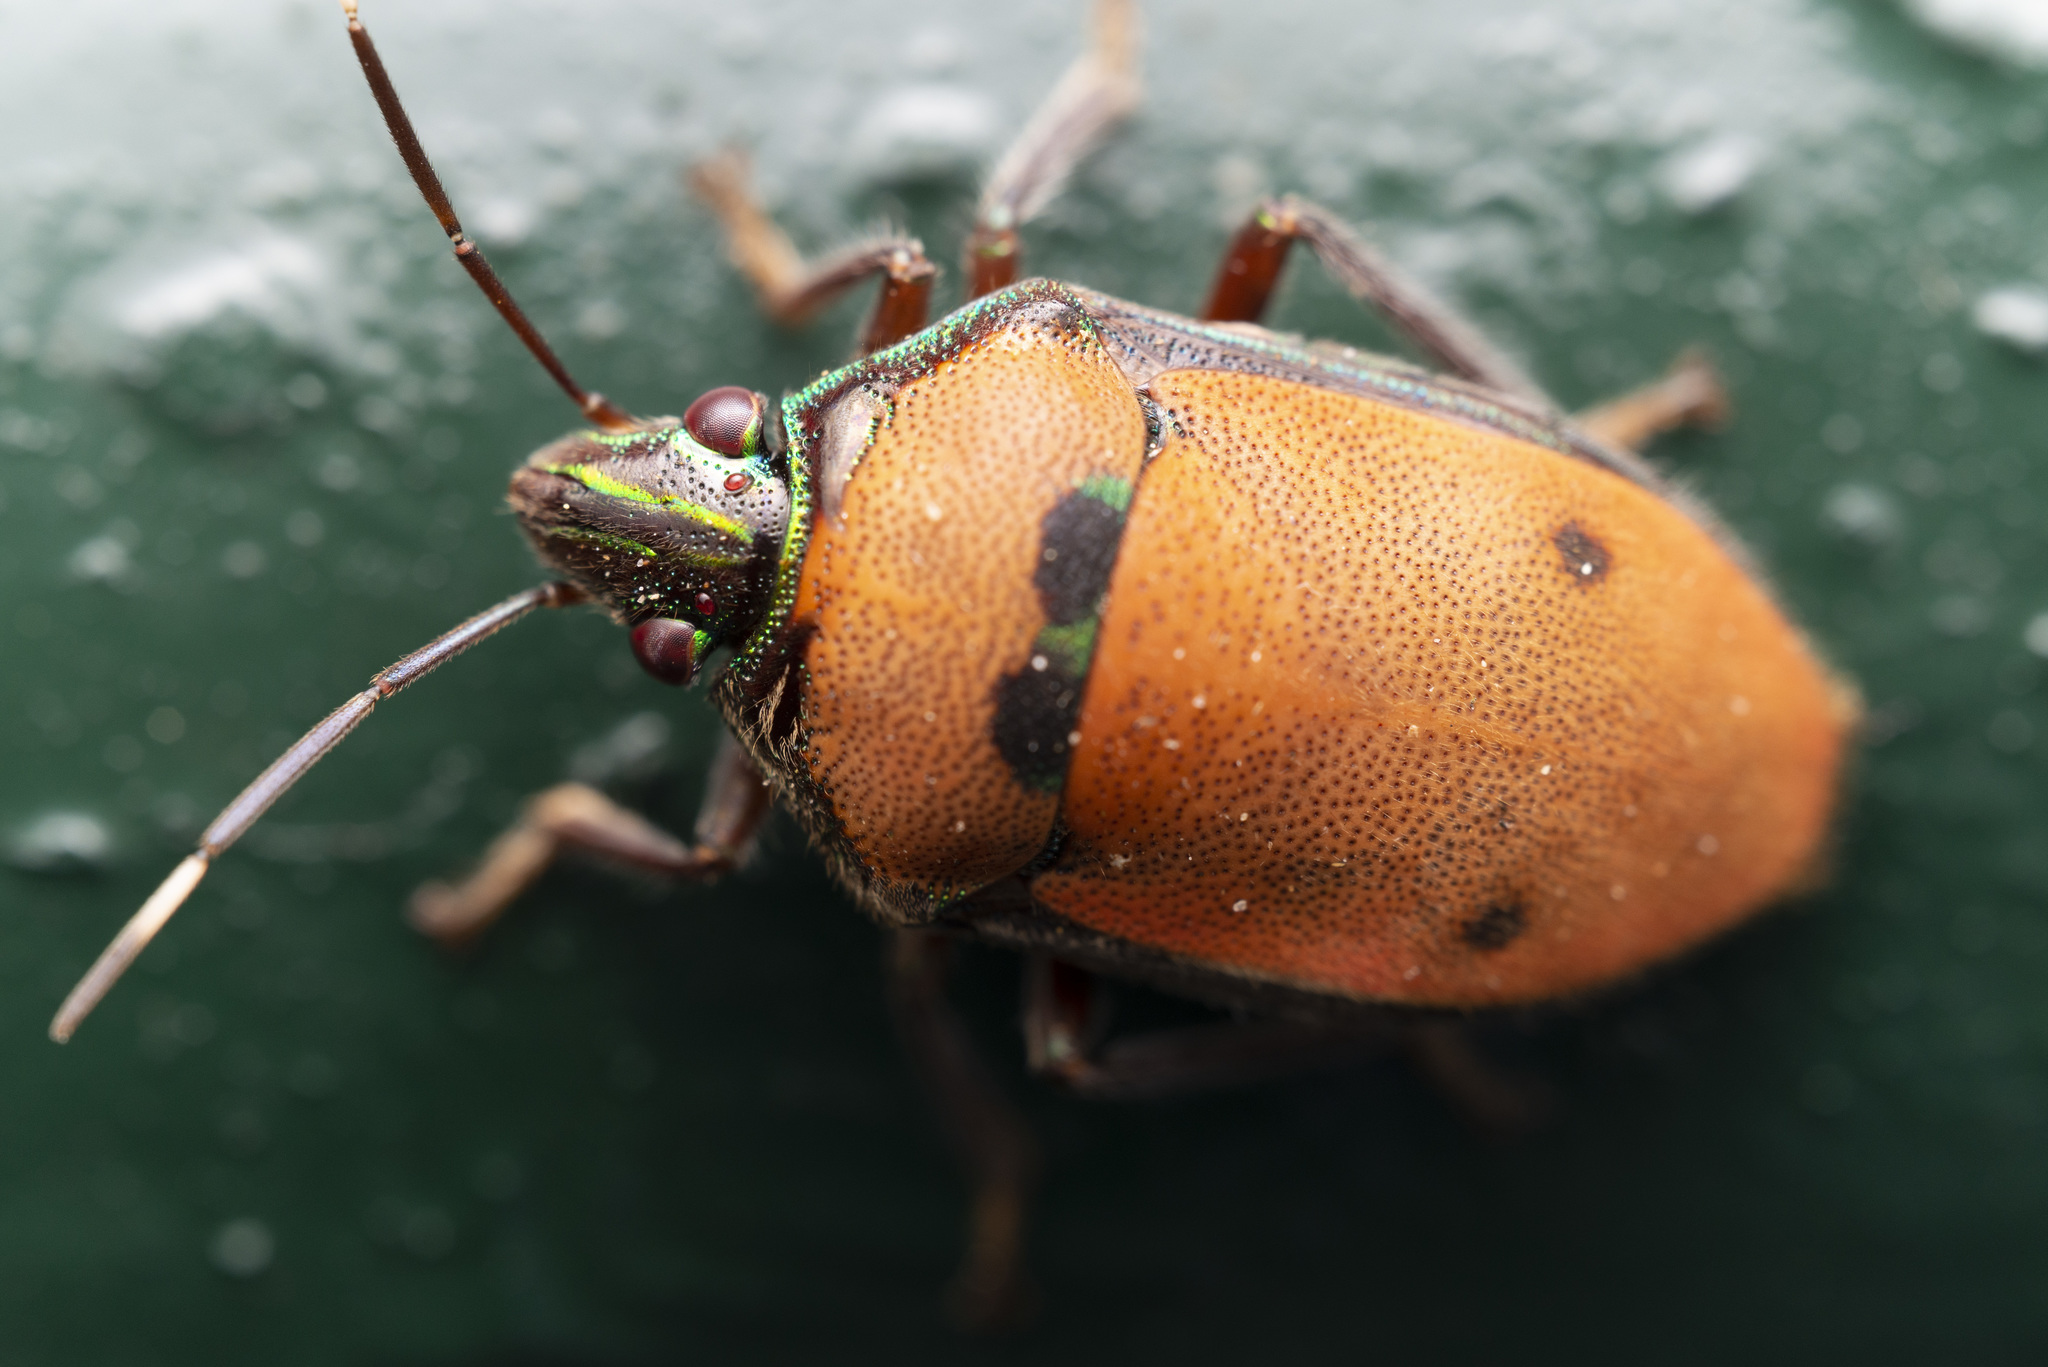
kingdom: Animalia
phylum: Arthropoda
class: Insecta
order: Hemiptera
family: Scutelleridae
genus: Tetrarthria
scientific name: Tetrarthria variegata
